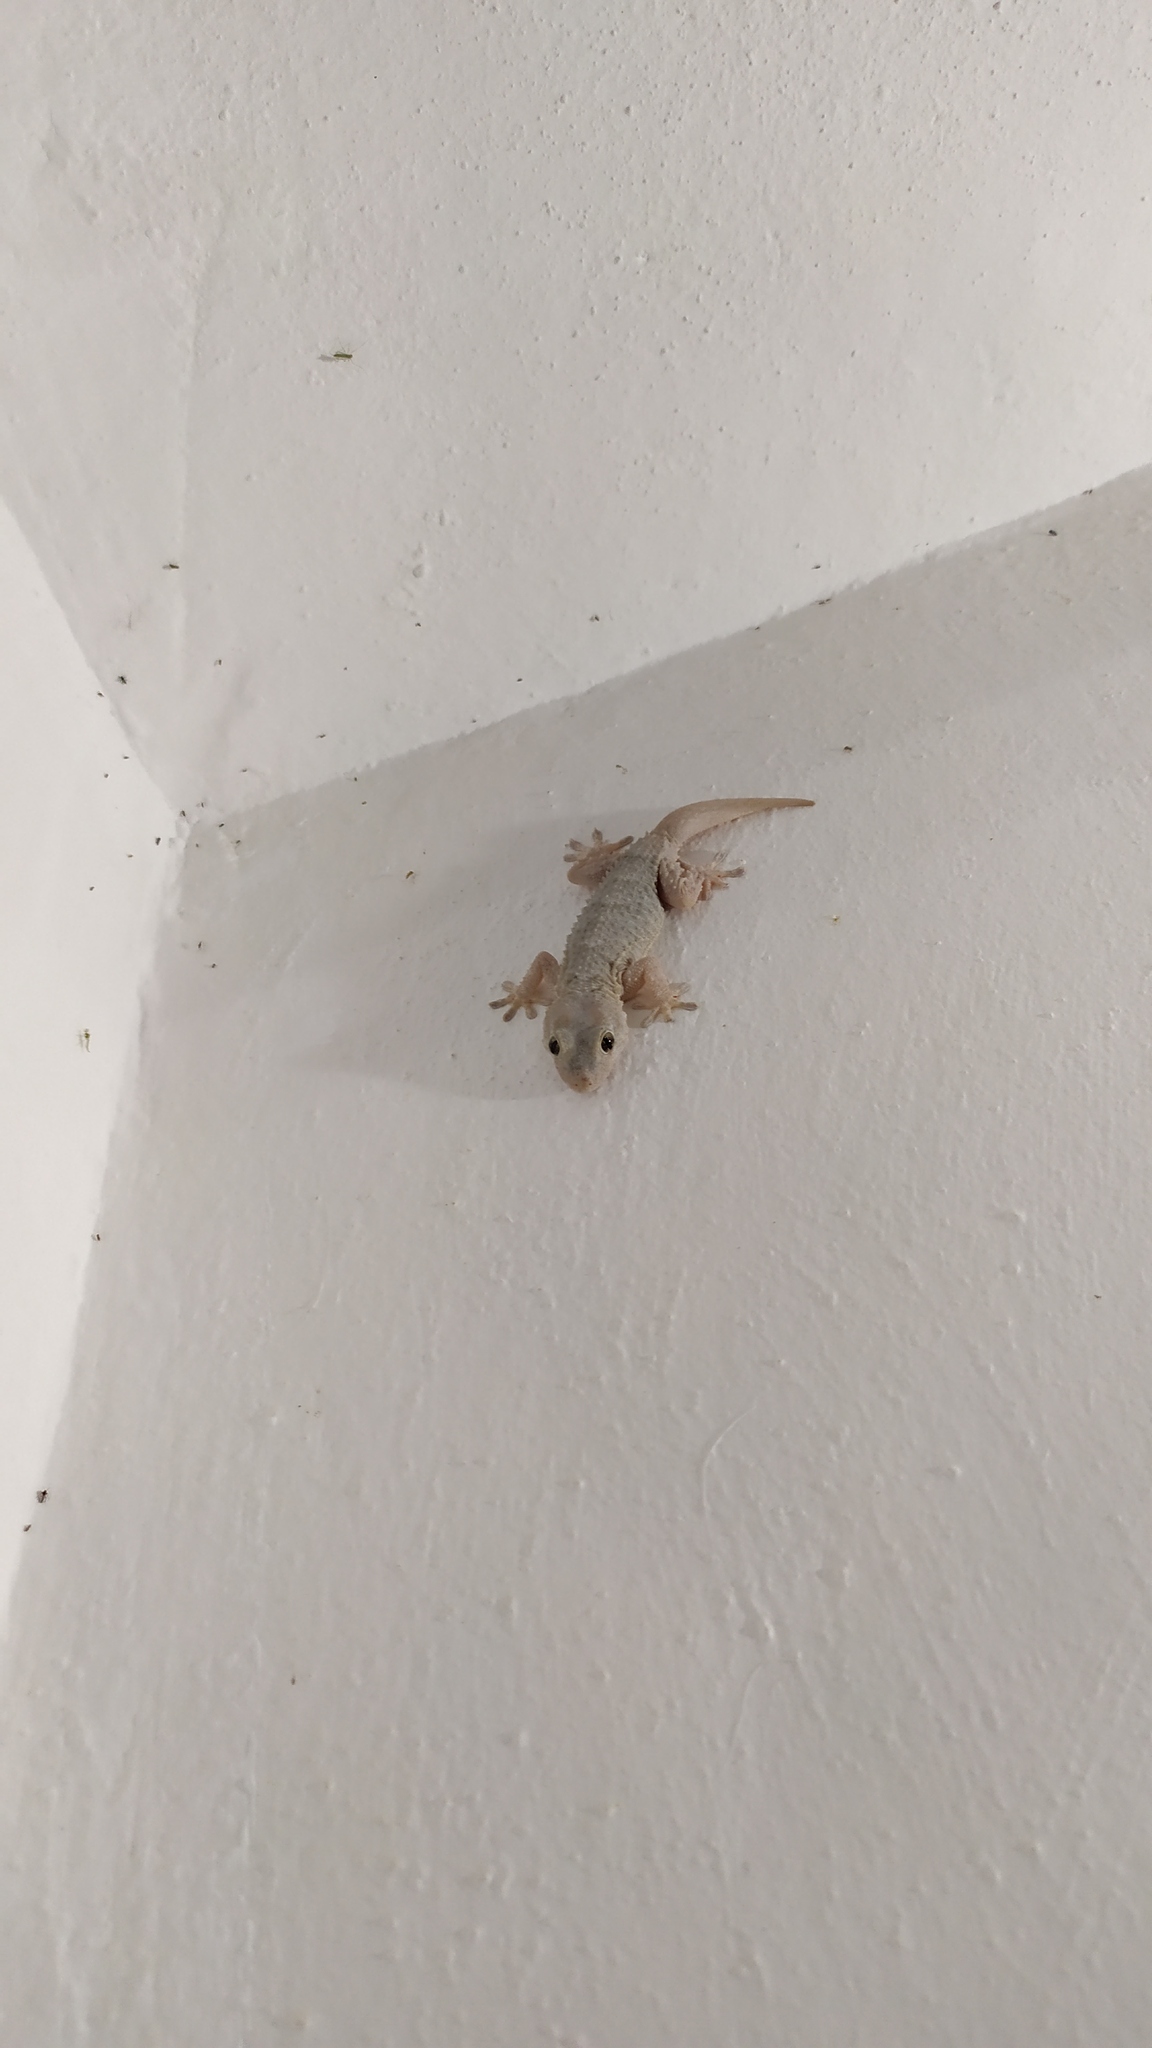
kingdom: Animalia
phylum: Chordata
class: Squamata
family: Phyllodactylidae
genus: Tarentola
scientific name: Tarentola mauritanica
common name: Moorish gecko
